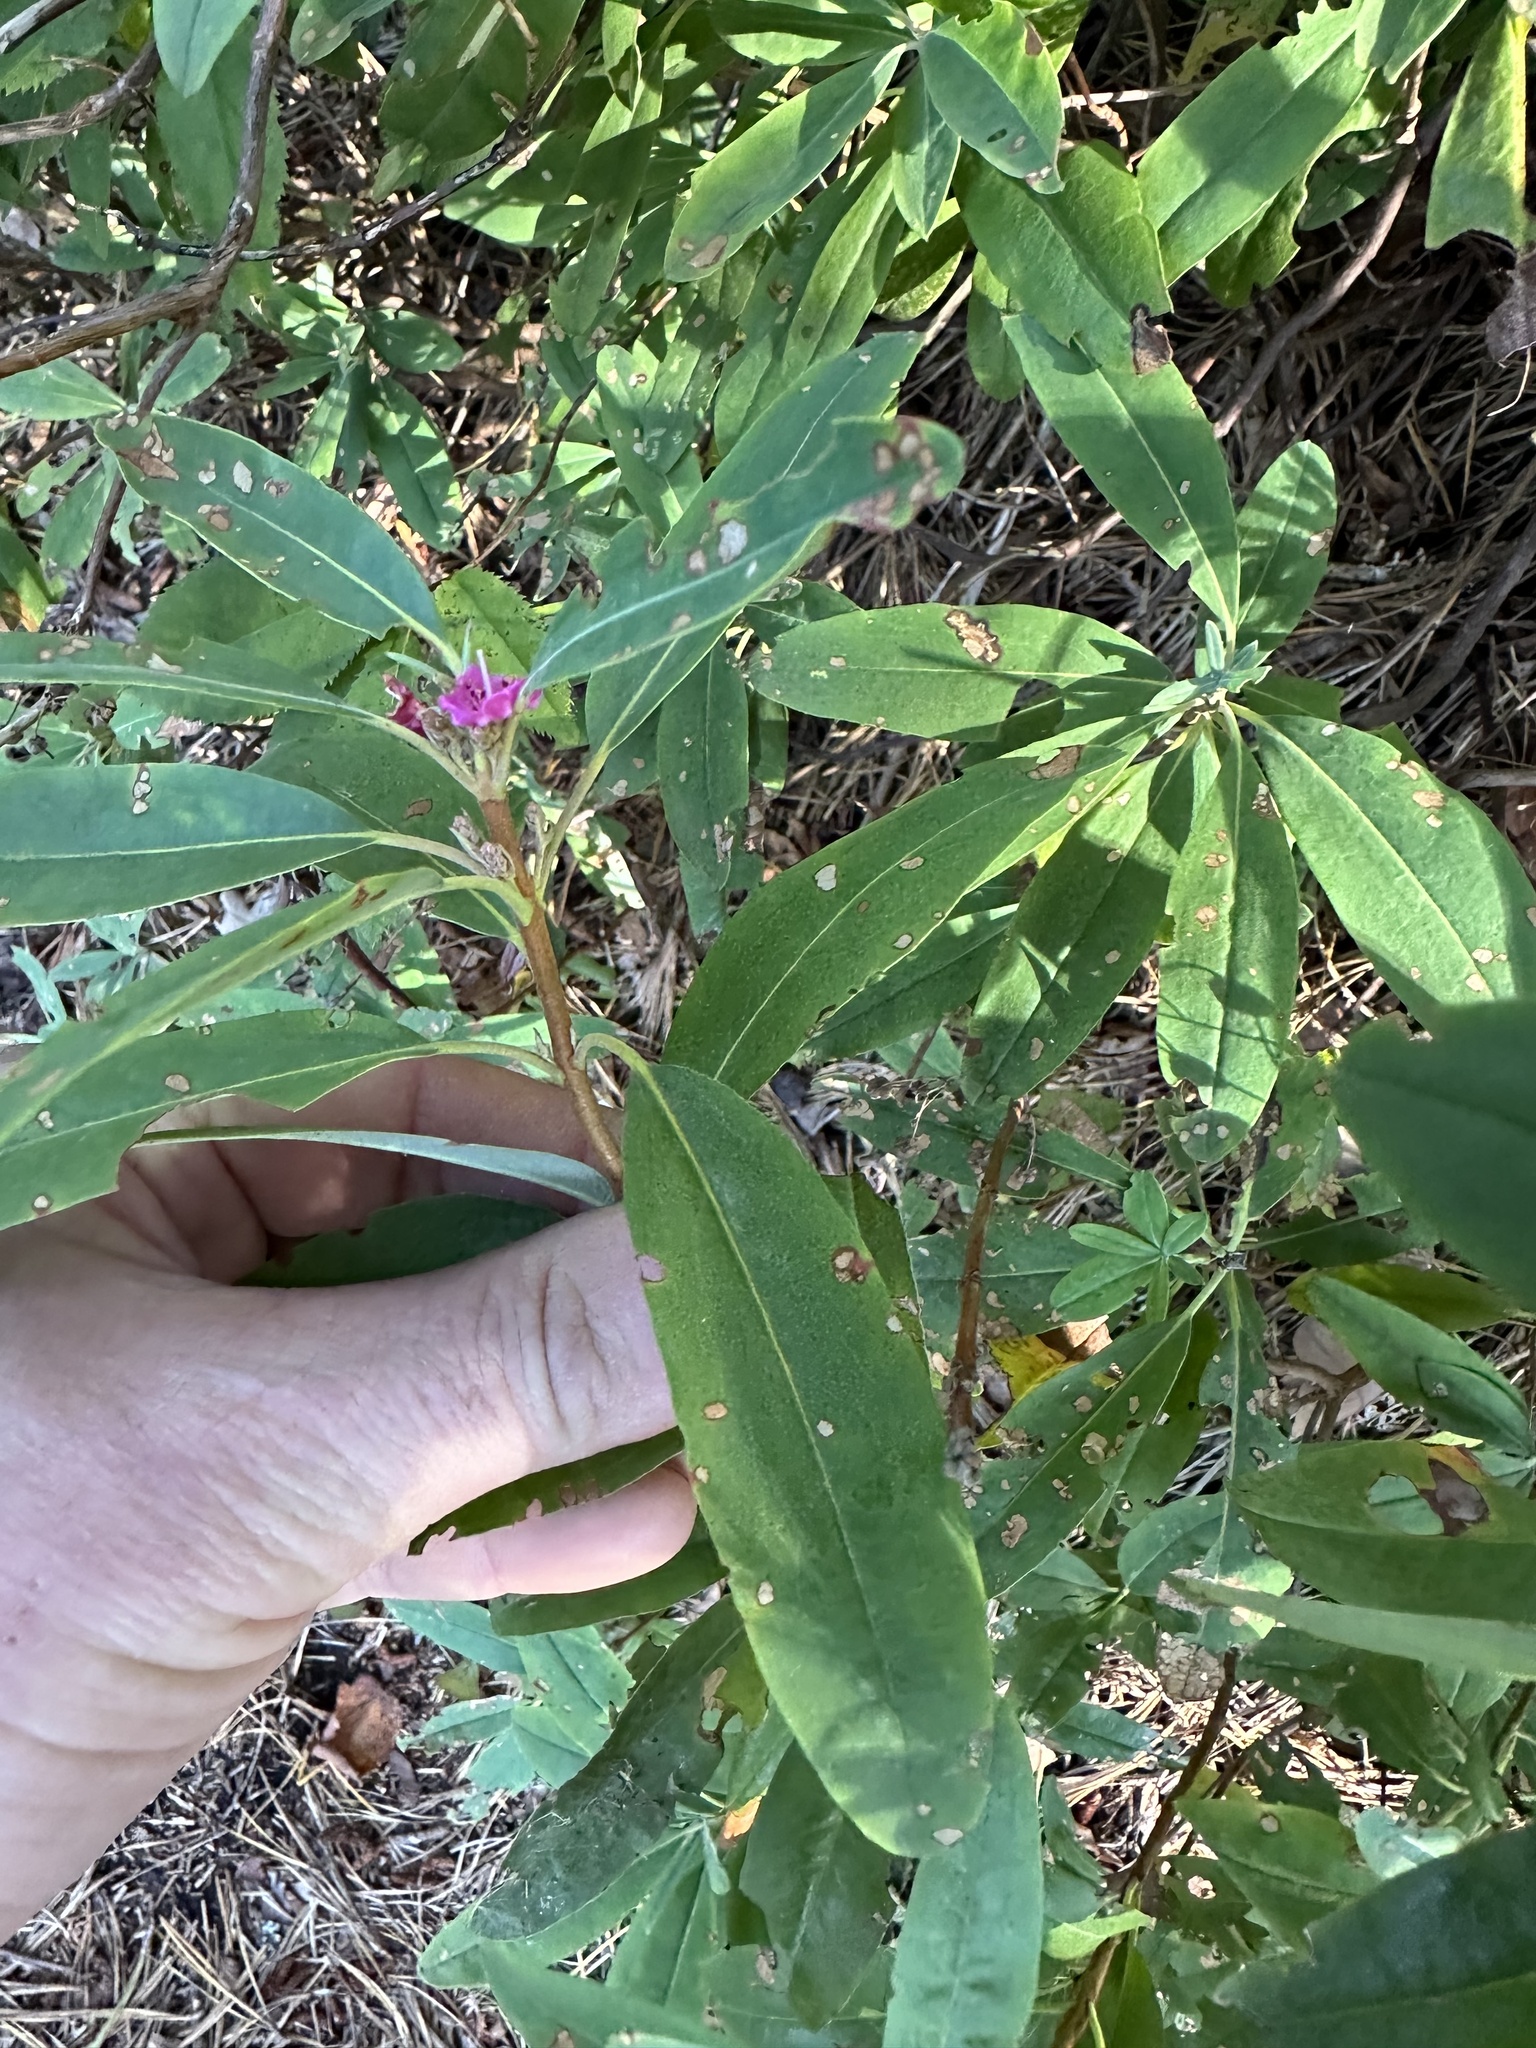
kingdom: Plantae
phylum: Tracheophyta
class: Magnoliopsida
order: Ericales
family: Ericaceae
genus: Kalmia
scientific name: Kalmia angustifolia
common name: Sheep-laurel
